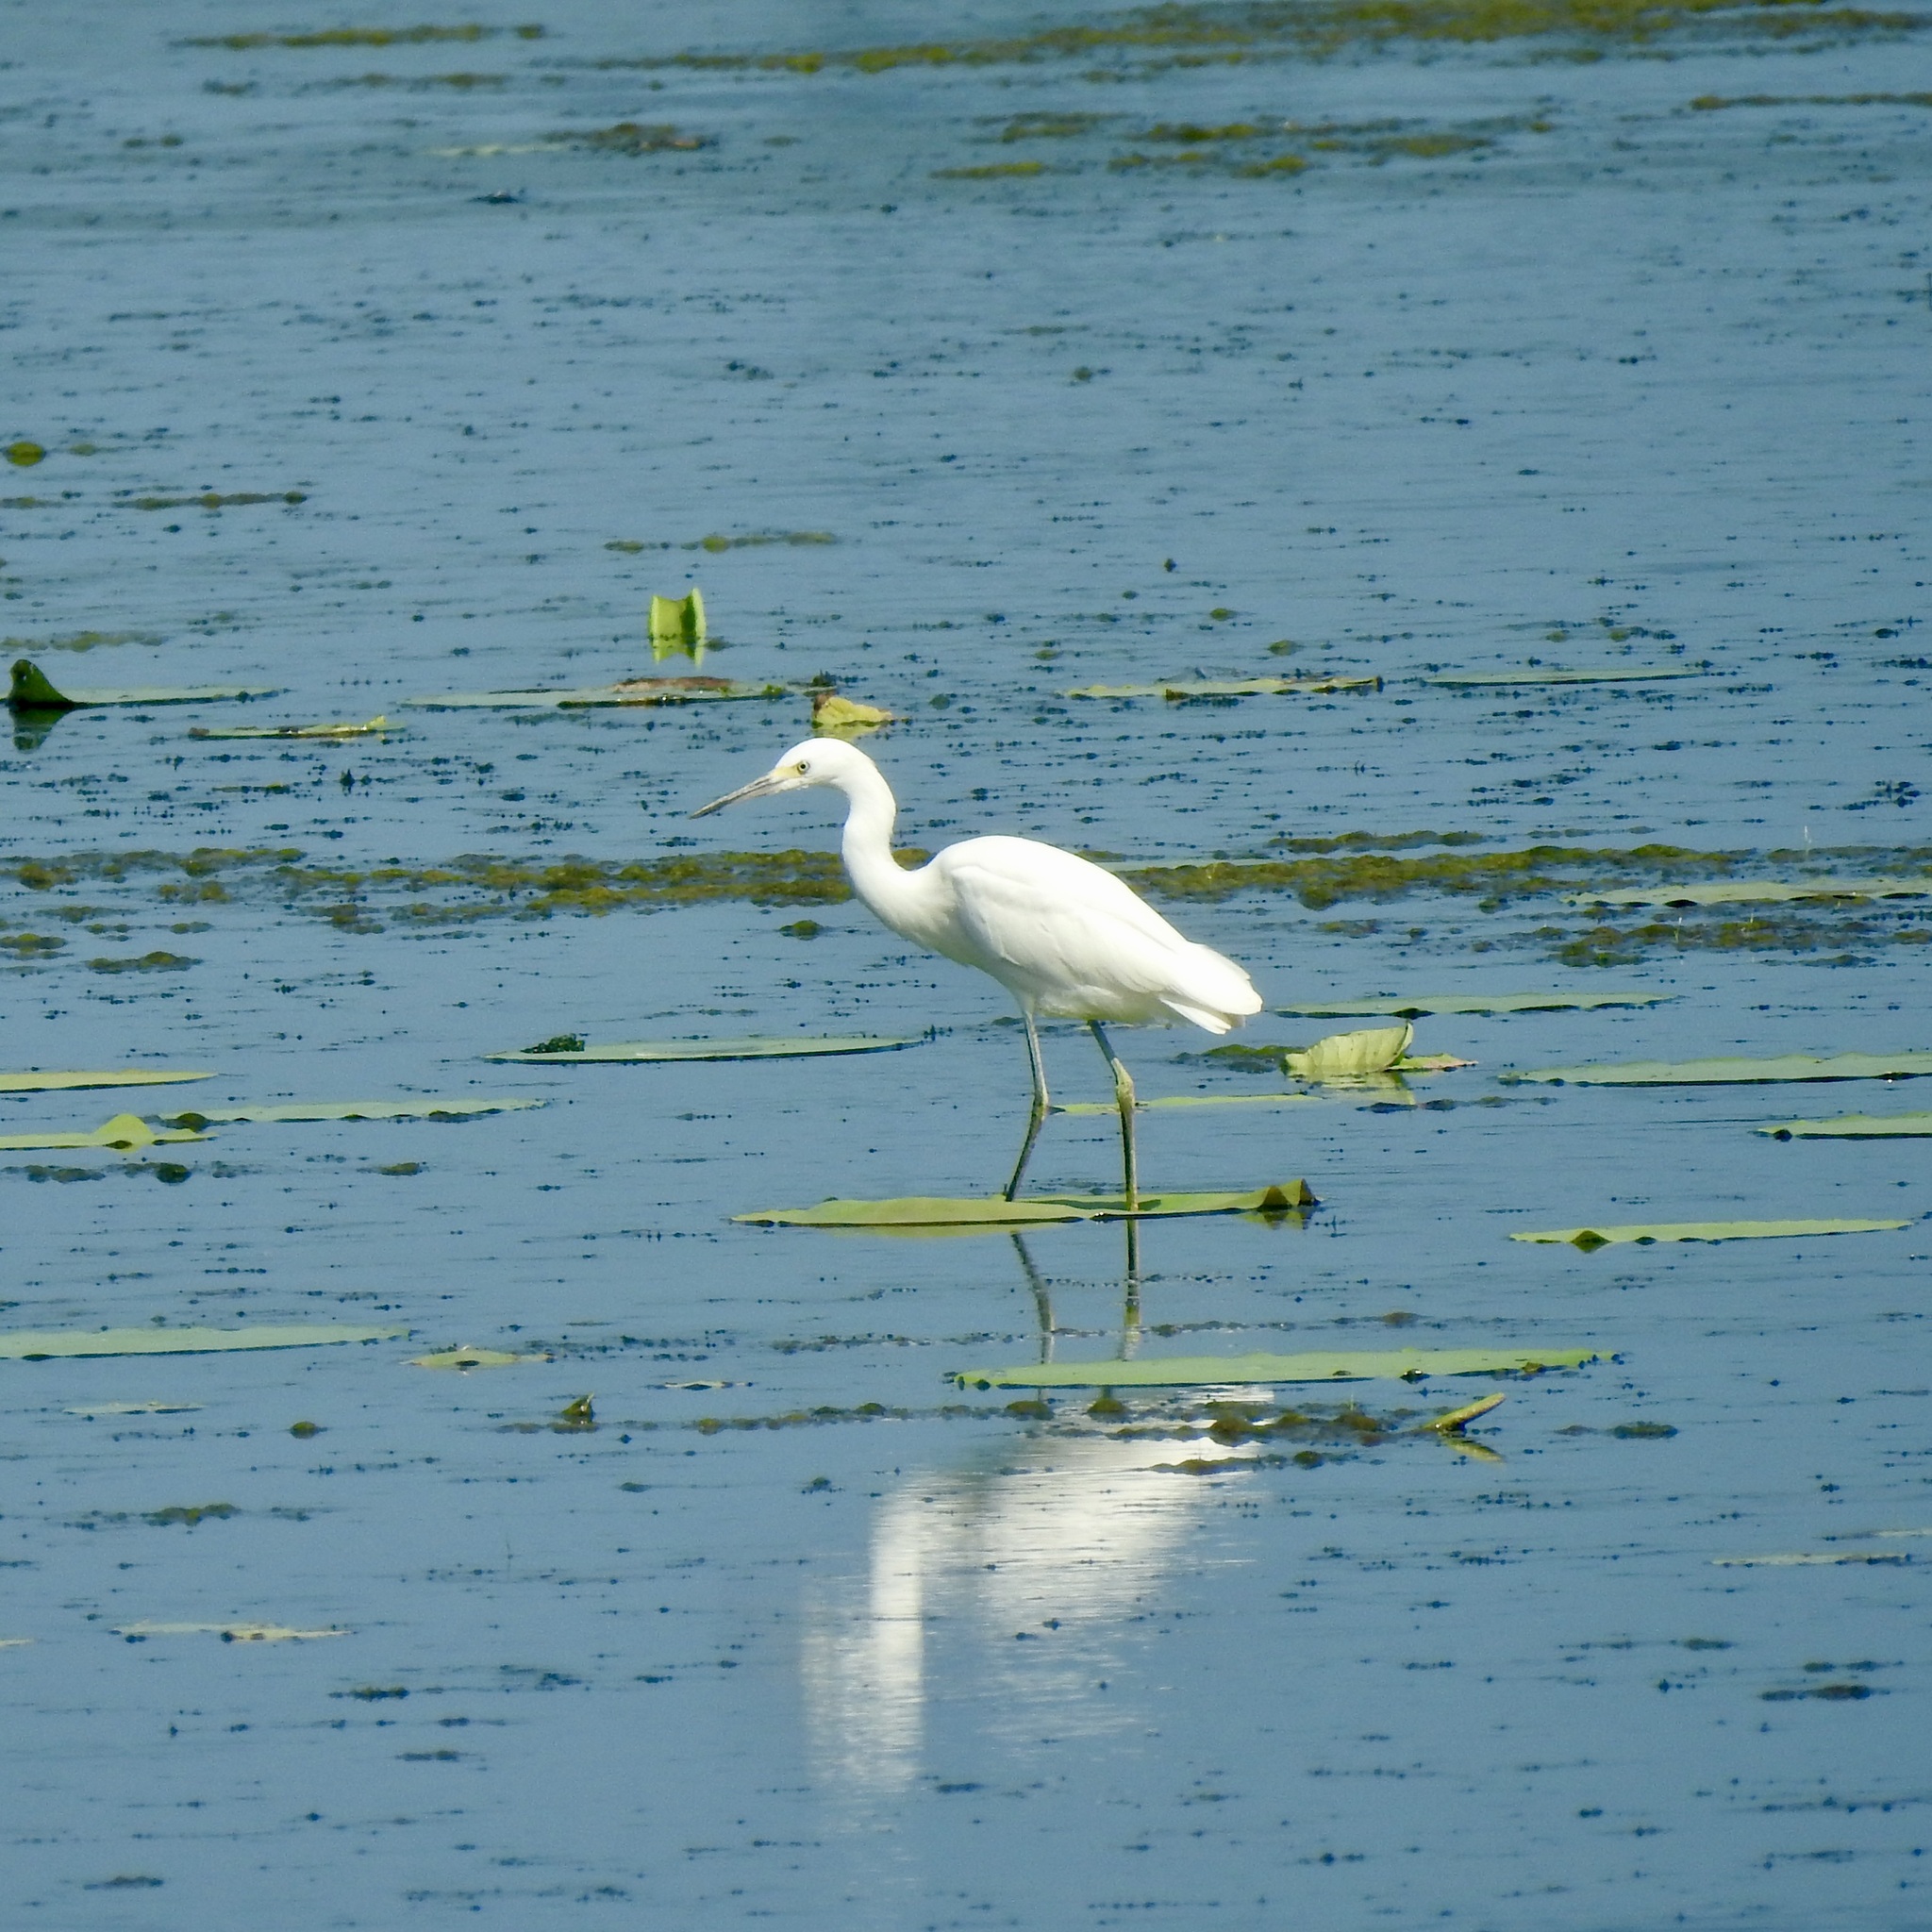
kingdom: Animalia
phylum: Chordata
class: Aves
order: Pelecaniformes
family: Ardeidae
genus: Egretta
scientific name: Egretta caerulea
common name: Little blue heron
